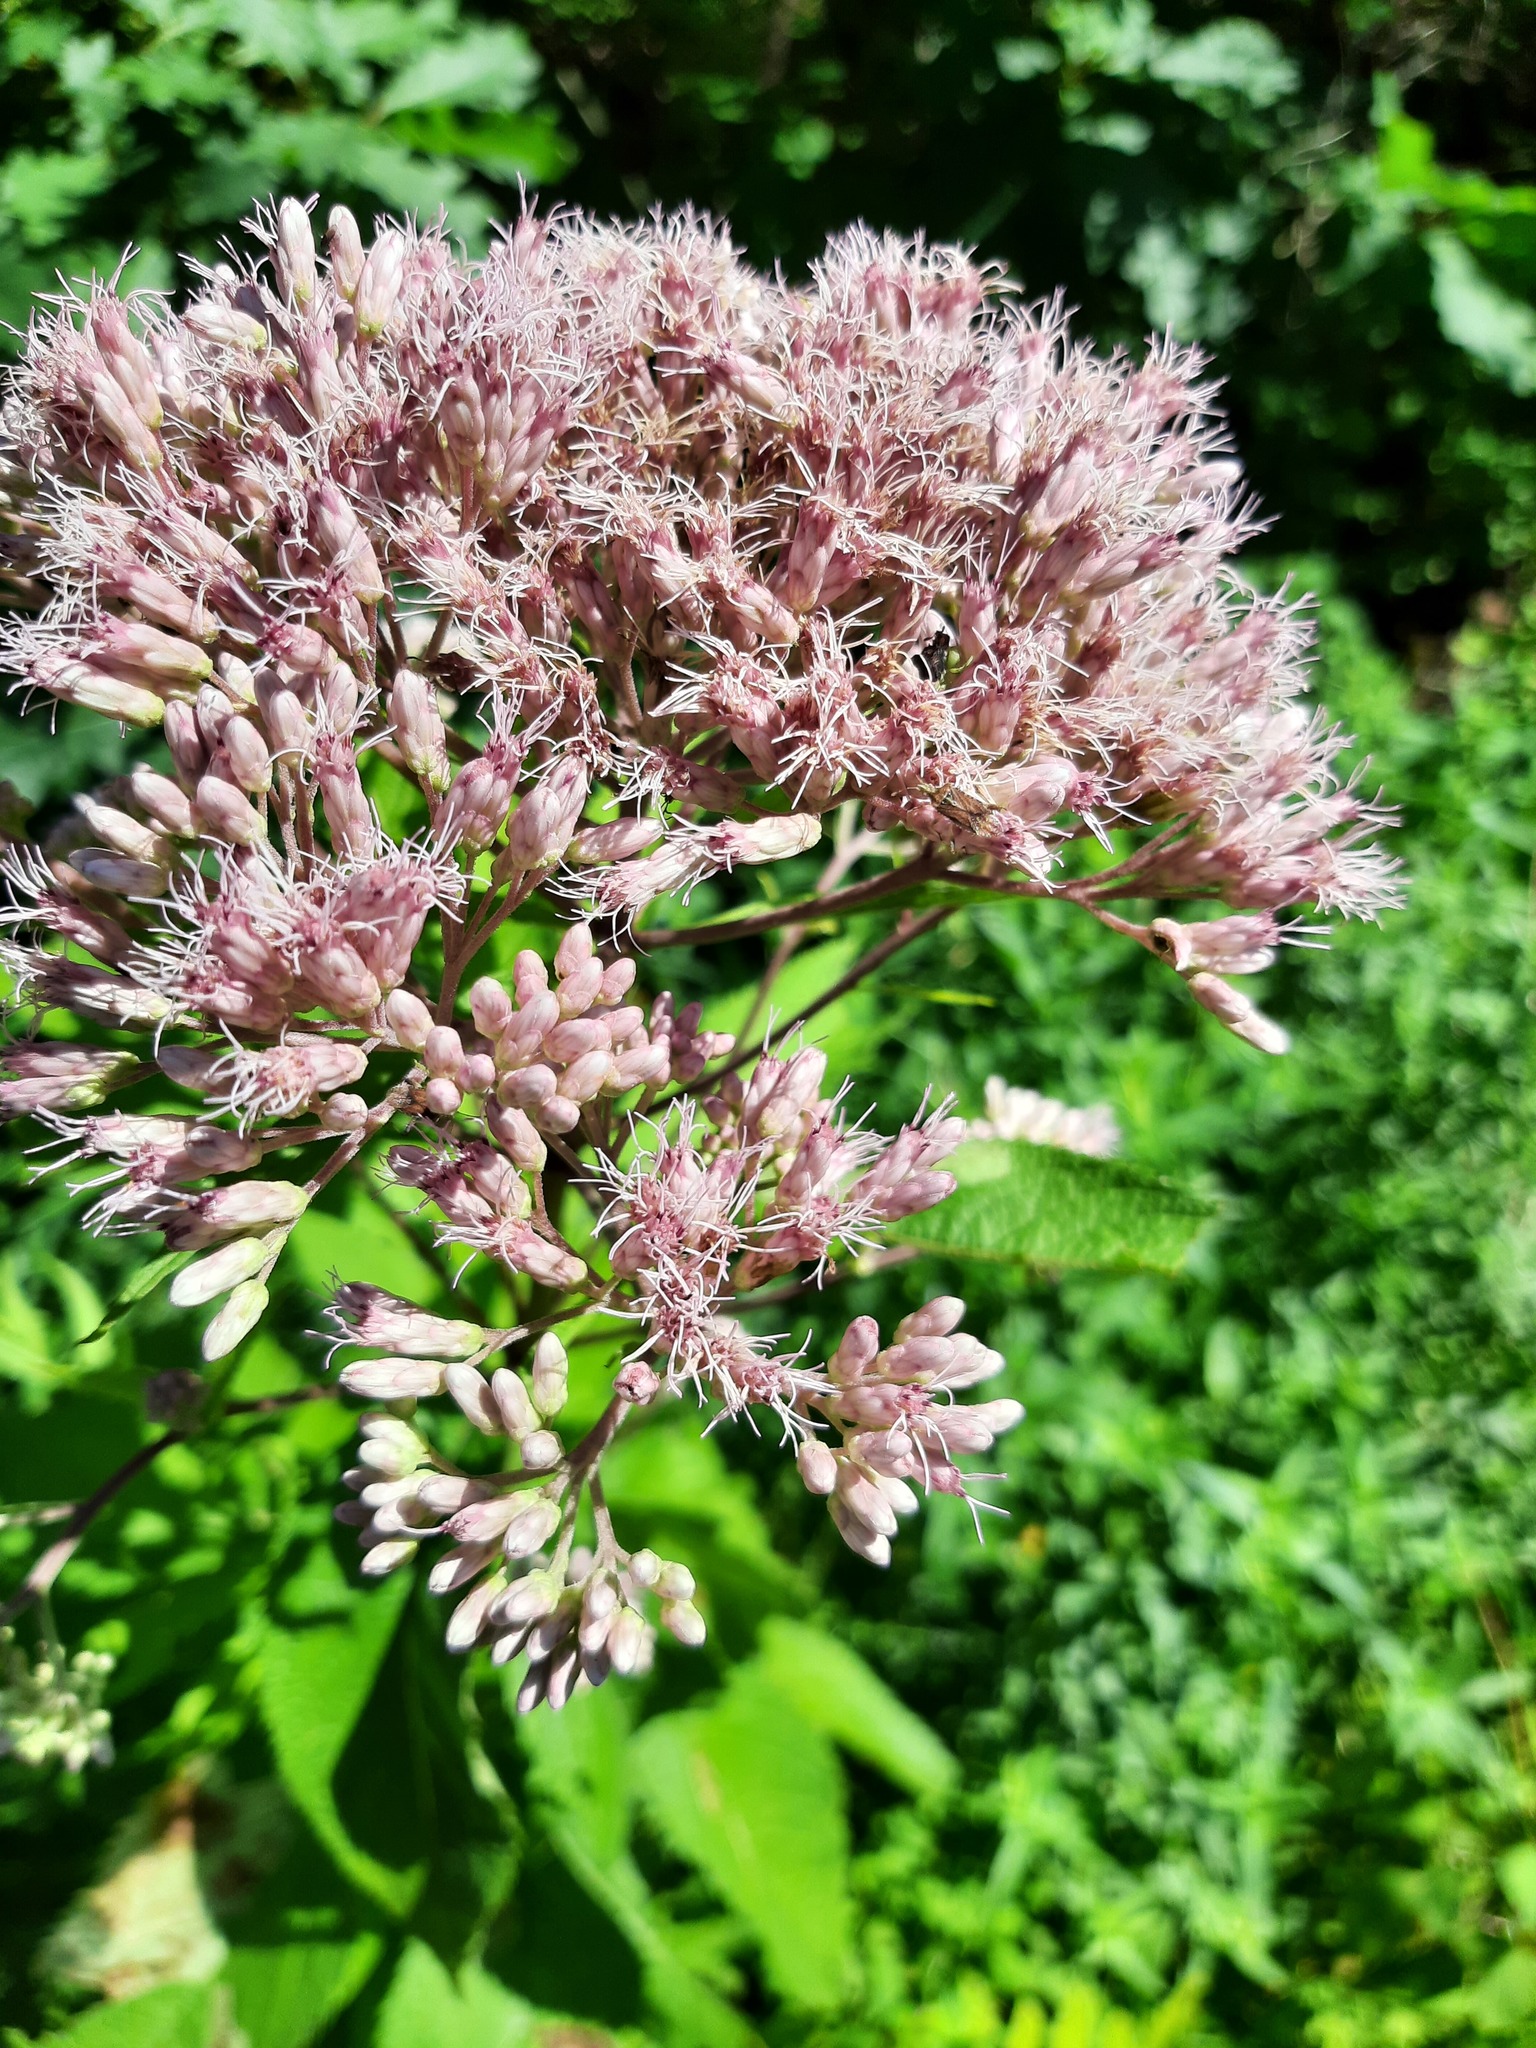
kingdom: Plantae
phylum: Tracheophyta
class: Magnoliopsida
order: Asterales
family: Asteraceae
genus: Eutrochium
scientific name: Eutrochium maculatum
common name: Spotted joe pye weed
